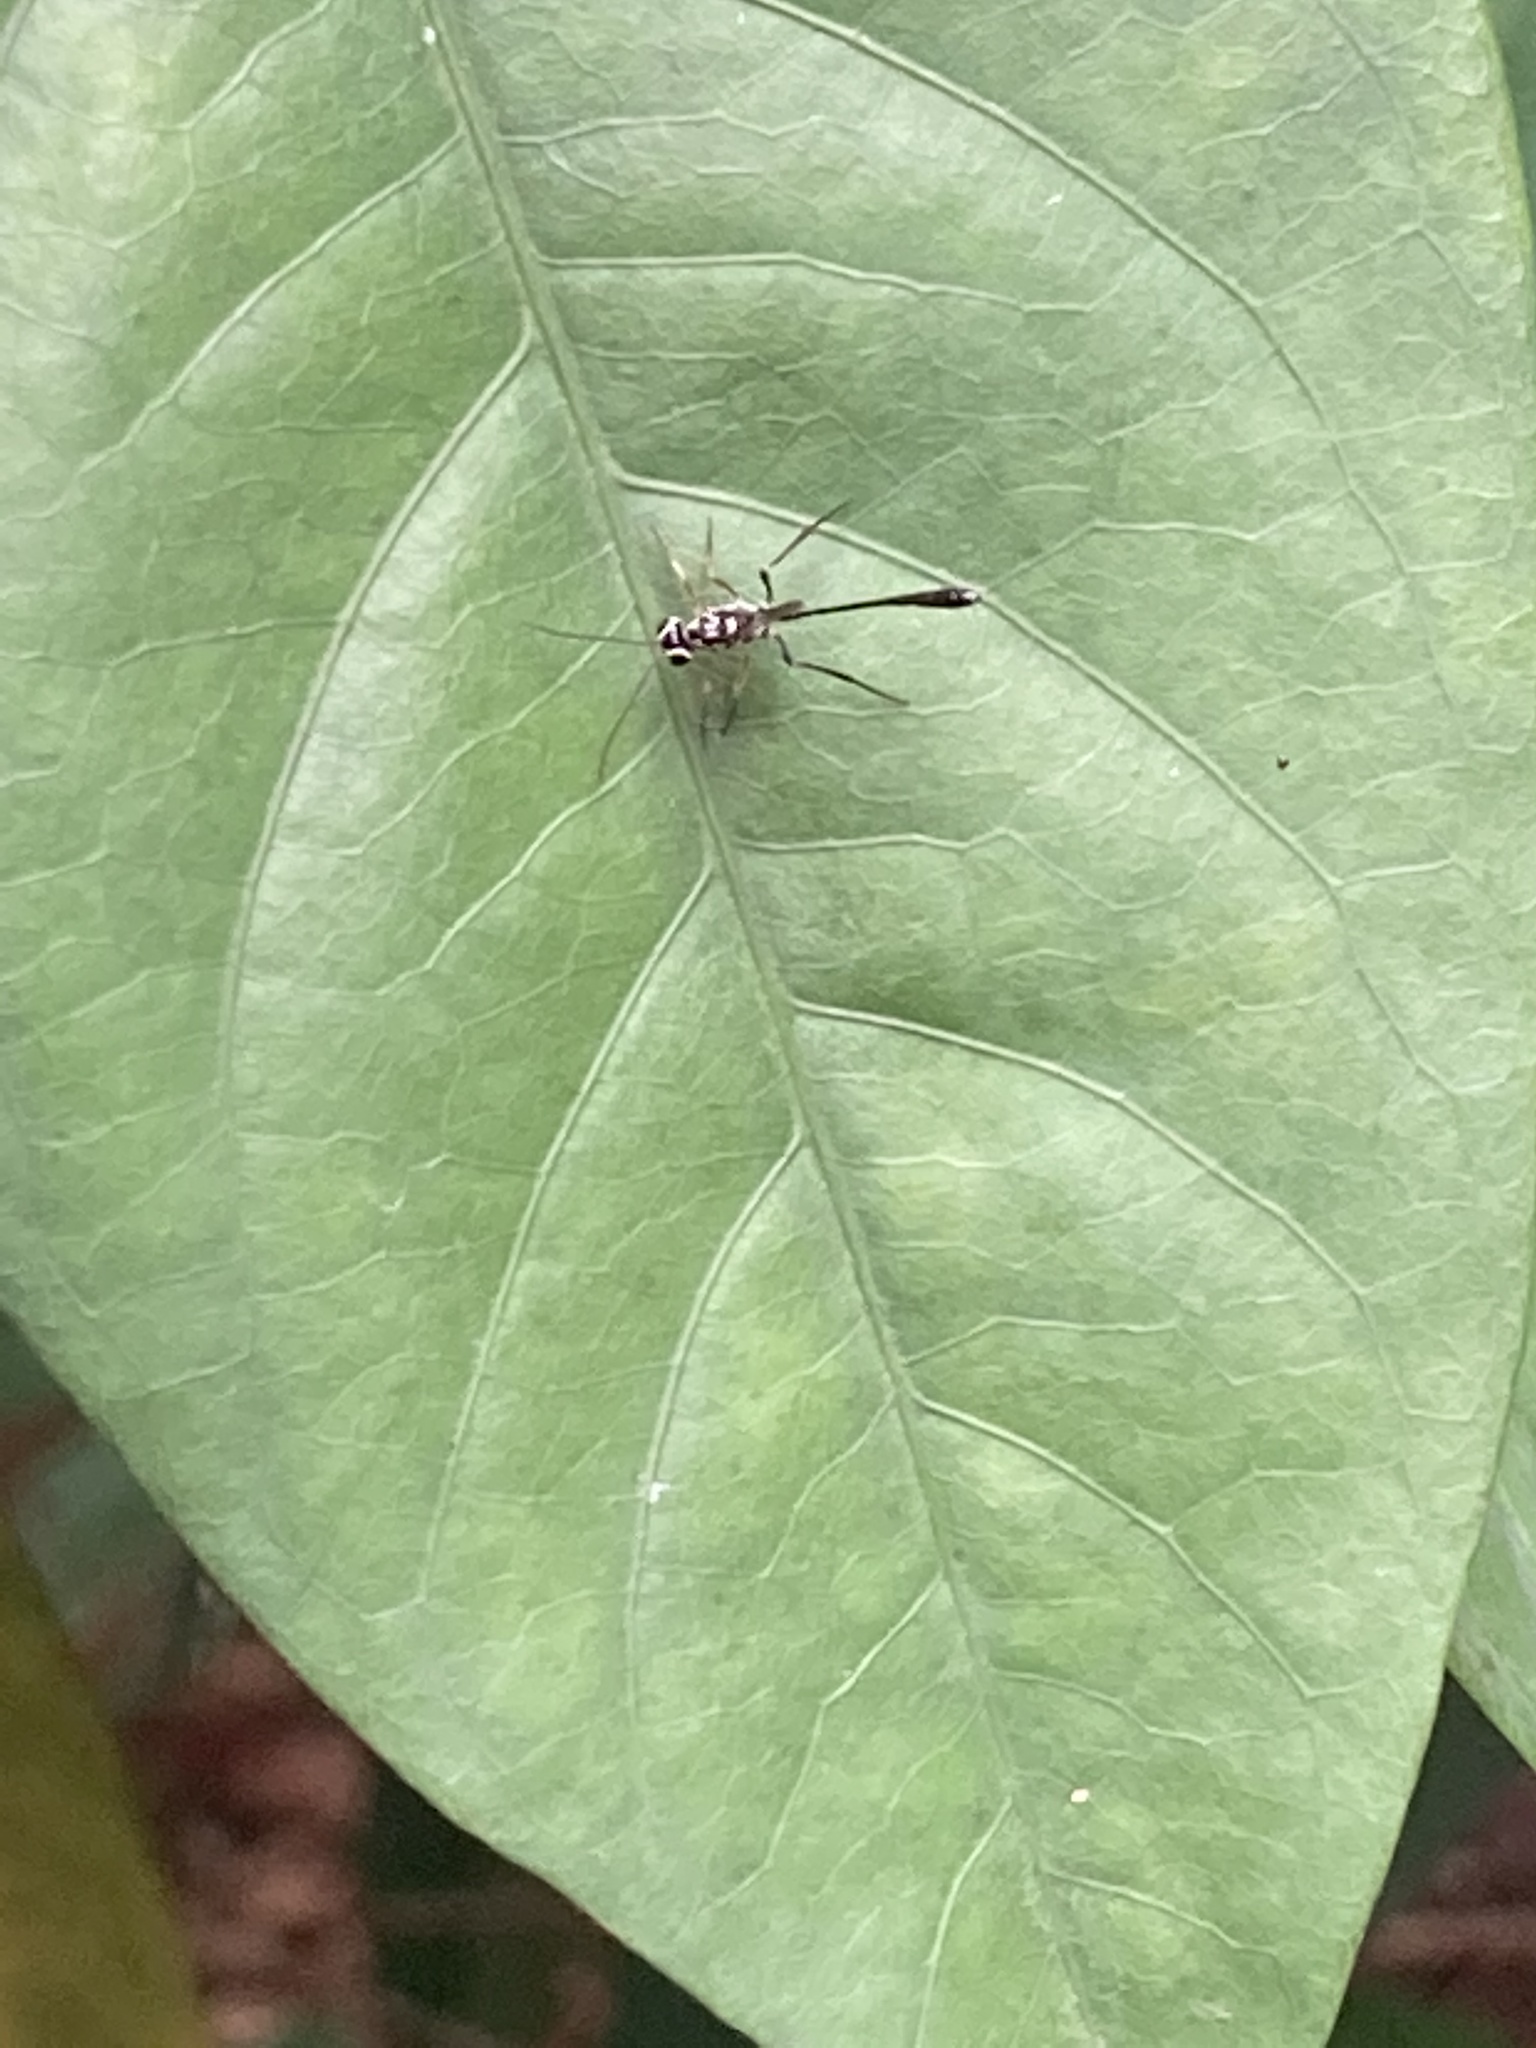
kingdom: Animalia
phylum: Arthropoda
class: Insecta
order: Hymenoptera
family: Ichneumonidae
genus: Anomalon
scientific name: Anomalon
